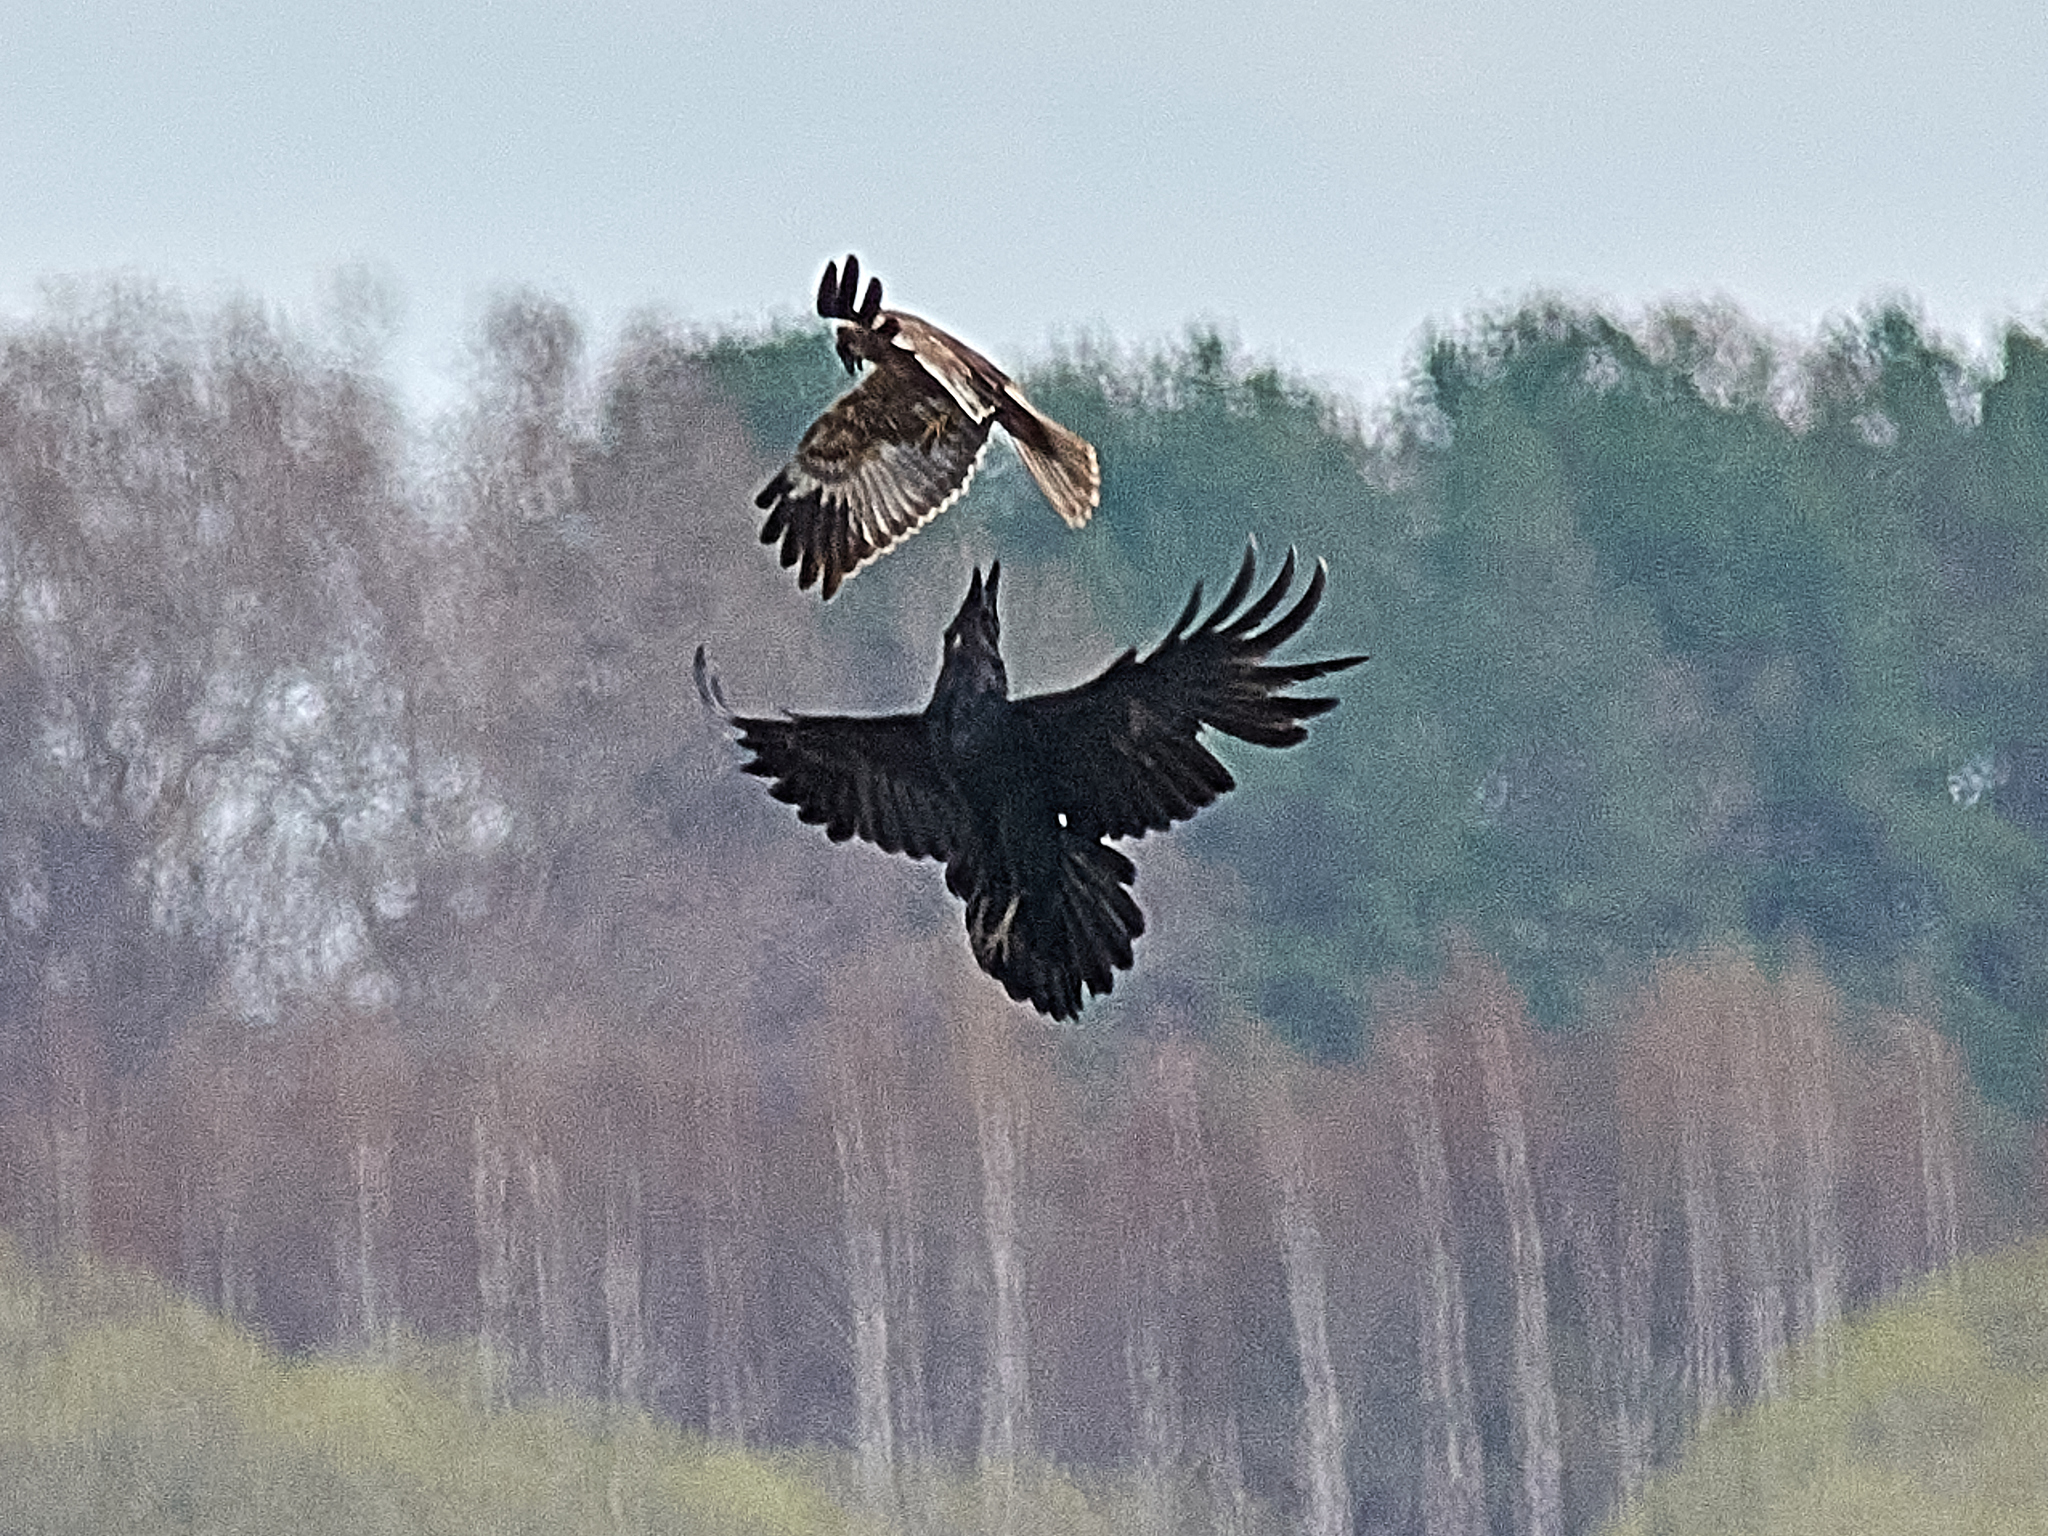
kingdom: Animalia
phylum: Chordata
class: Aves
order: Accipitriformes
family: Accipitridae
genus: Circus
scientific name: Circus aeruginosus
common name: Western marsh harrier
